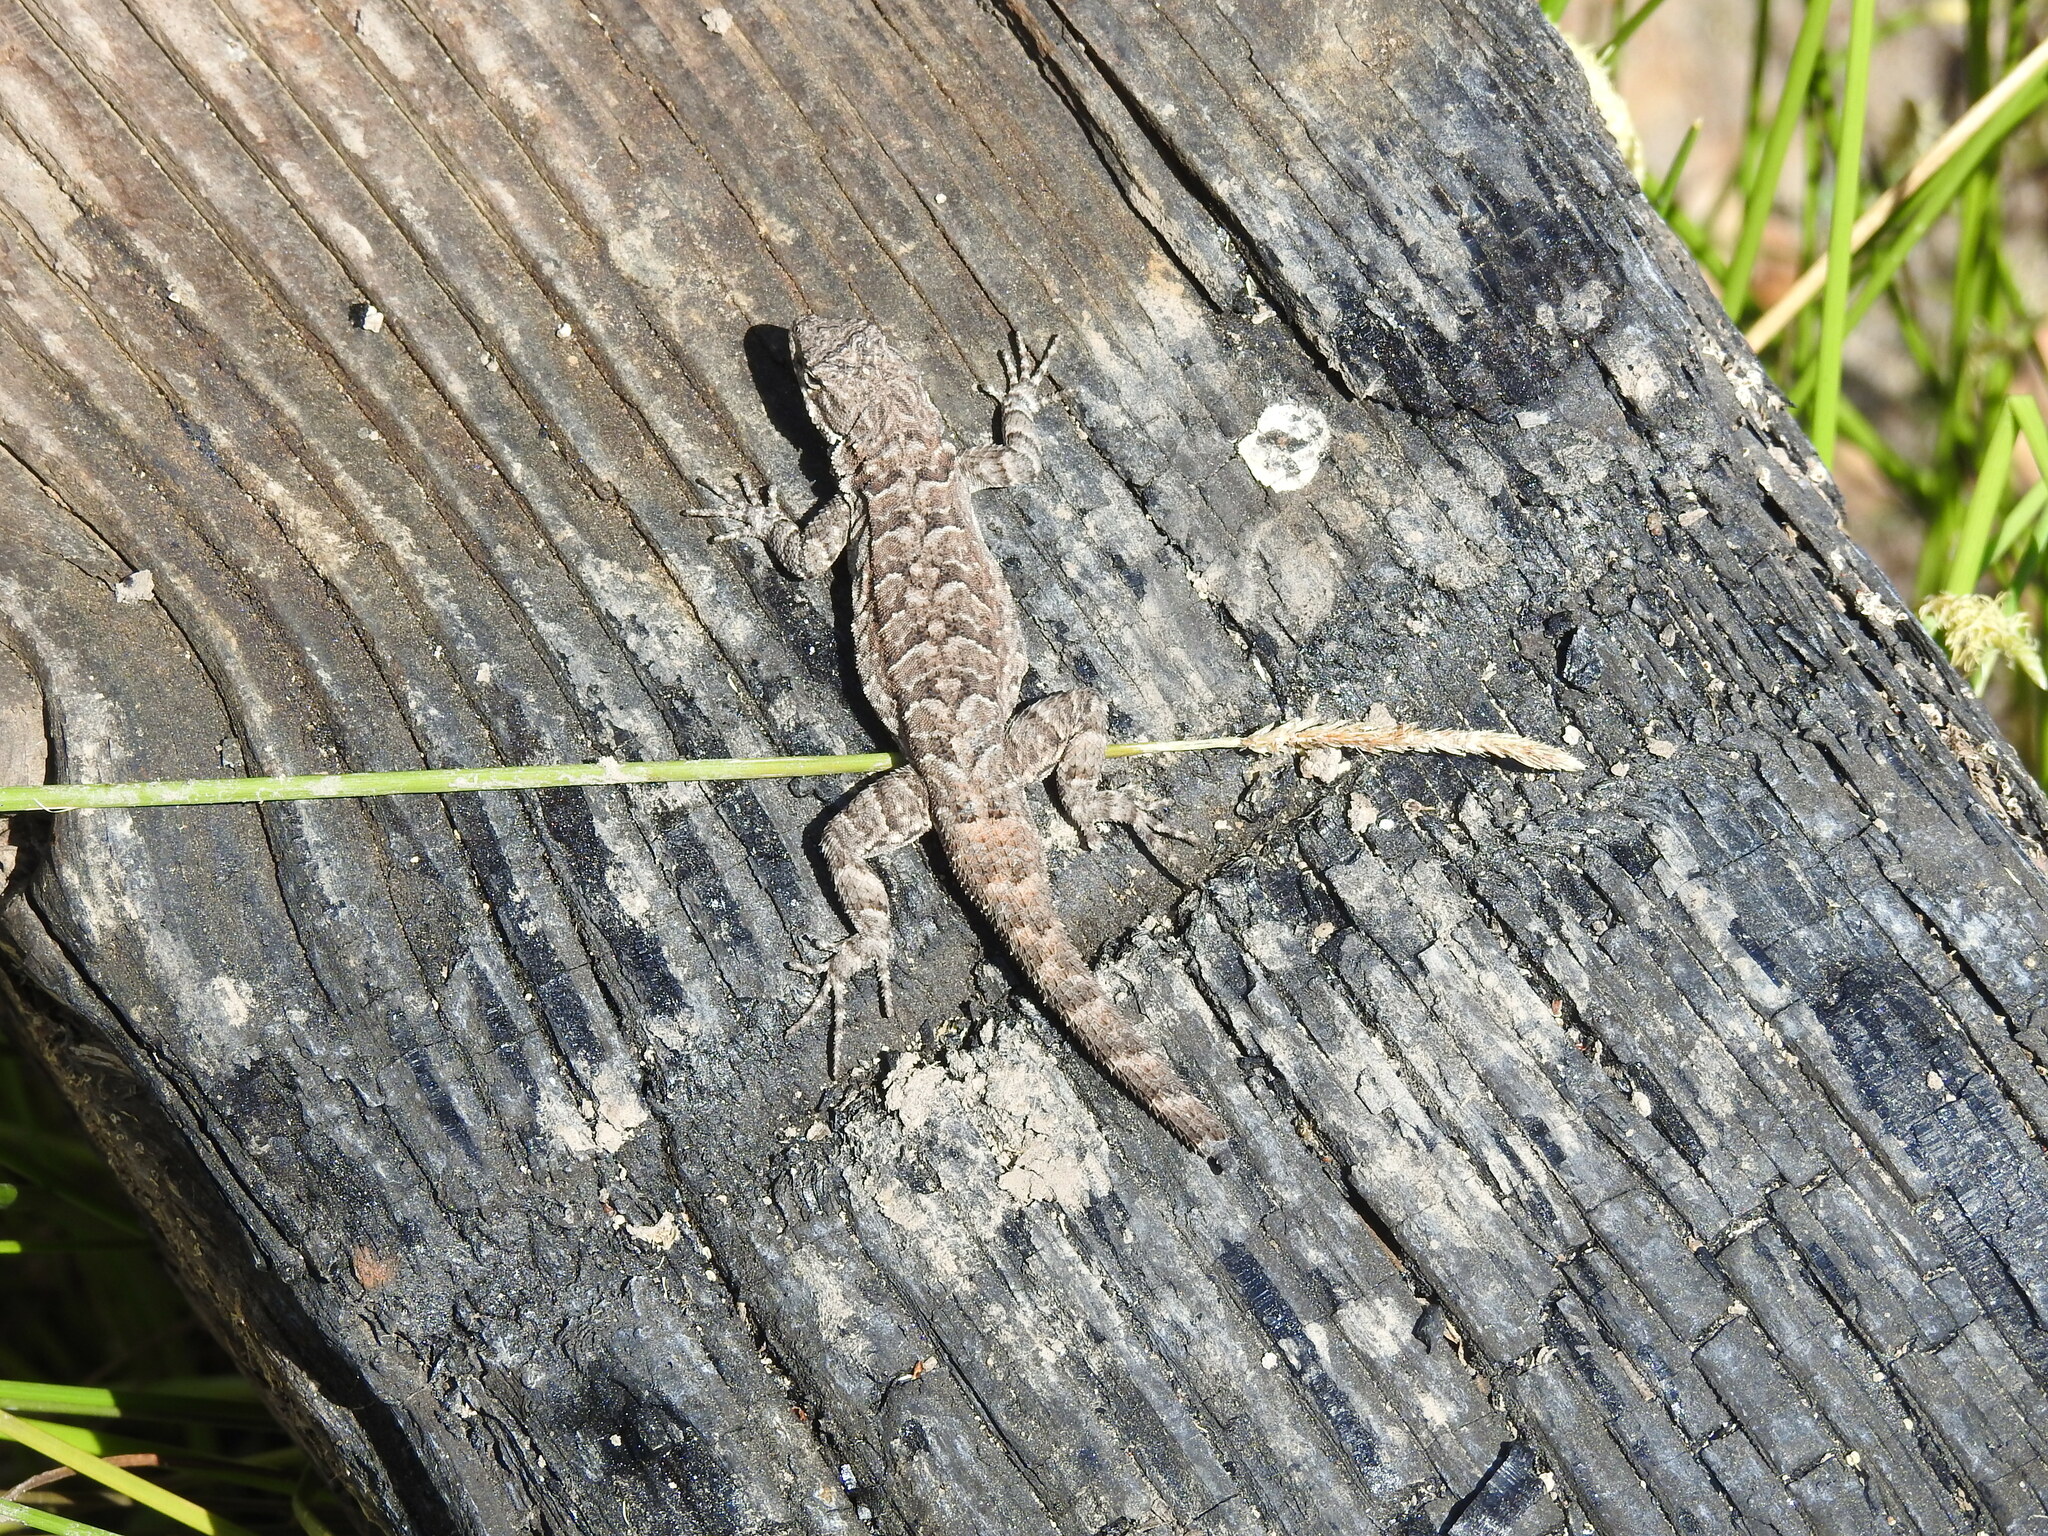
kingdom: Animalia
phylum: Chordata
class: Squamata
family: Phrynosomatidae
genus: Urosaurus
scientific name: Urosaurus ornatus
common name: Ornate tree lizard
